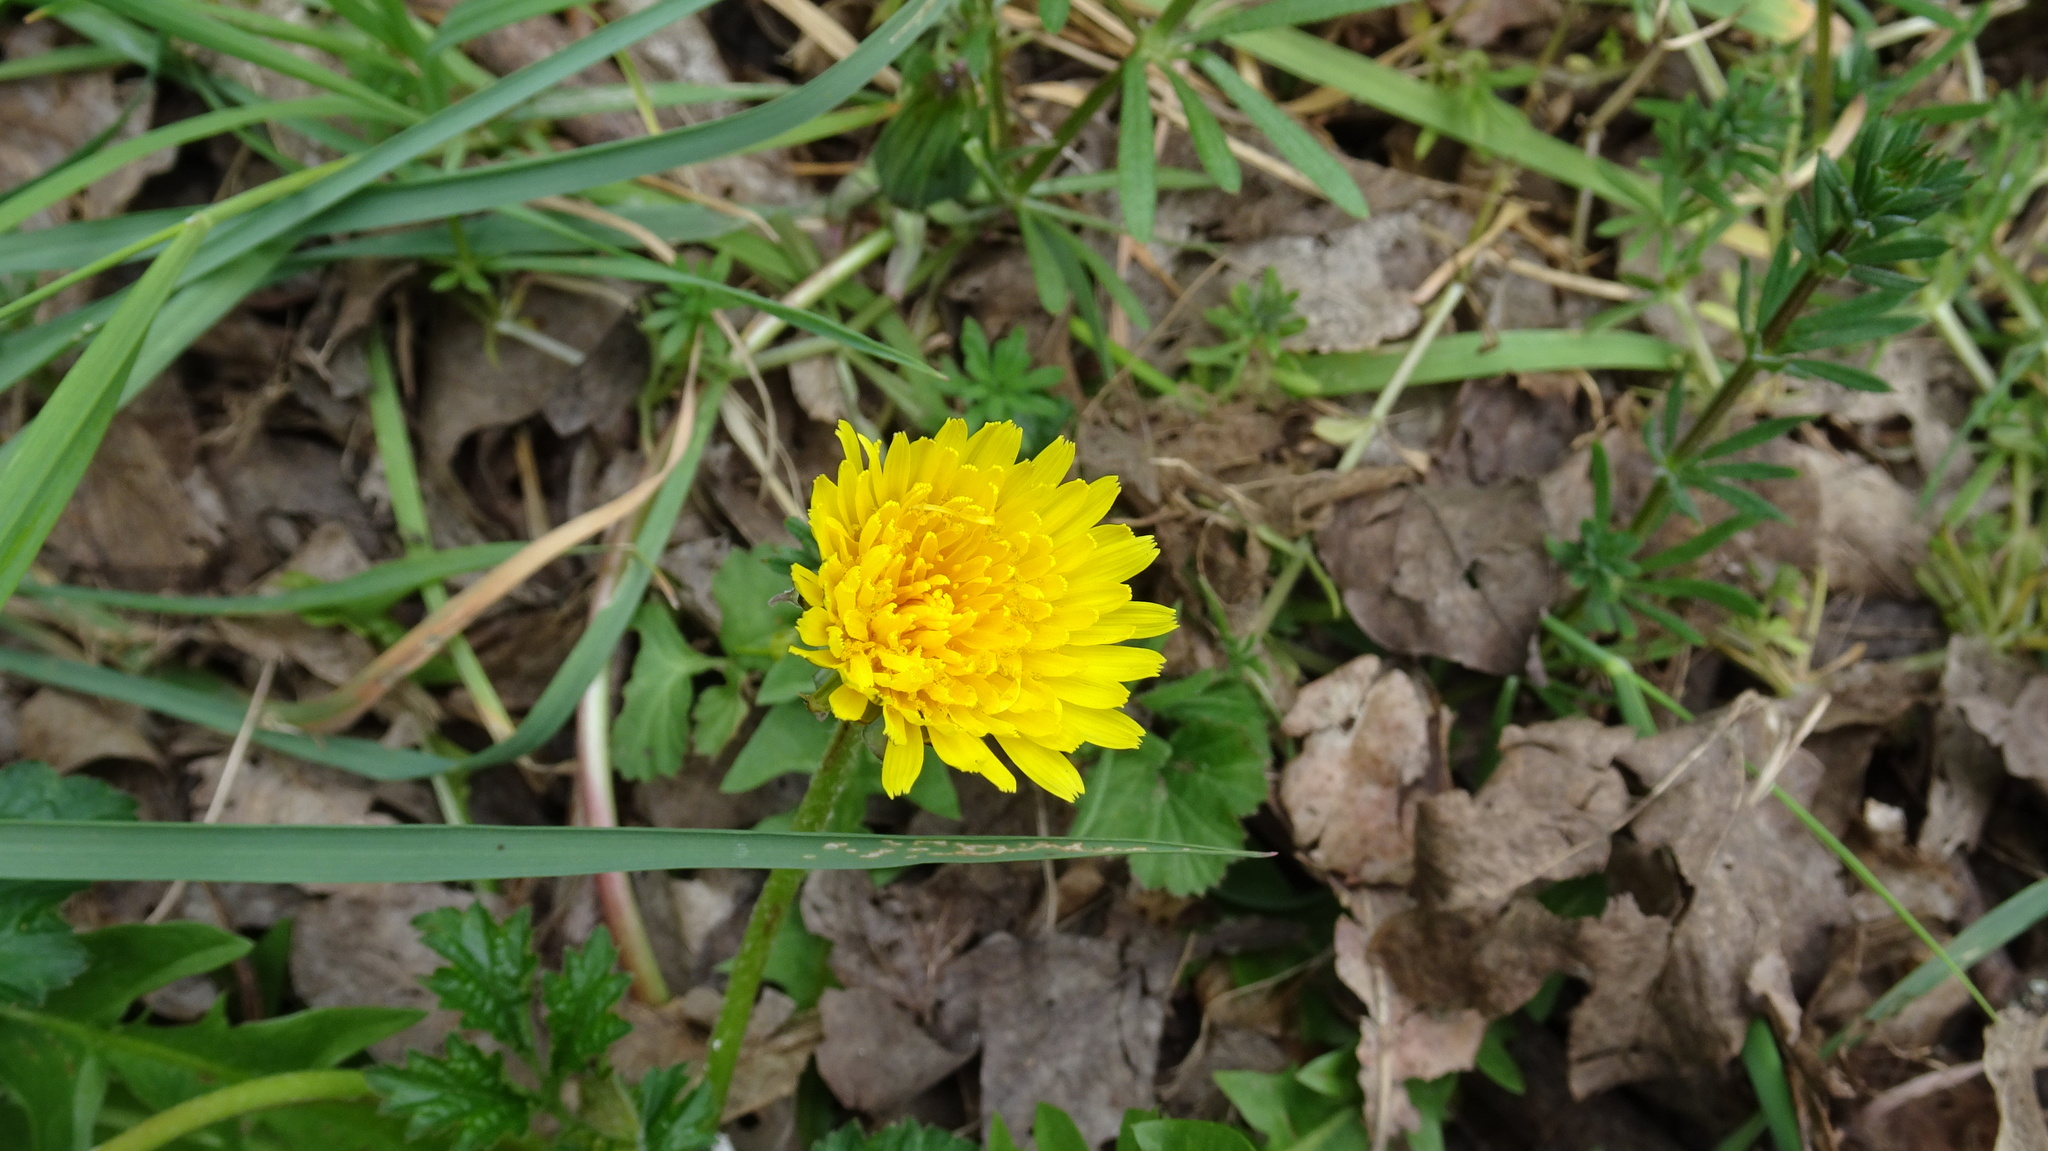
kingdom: Plantae
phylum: Tracheophyta
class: Magnoliopsida
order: Asterales
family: Asteraceae
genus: Taraxacum
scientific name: Taraxacum officinale
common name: Common dandelion
